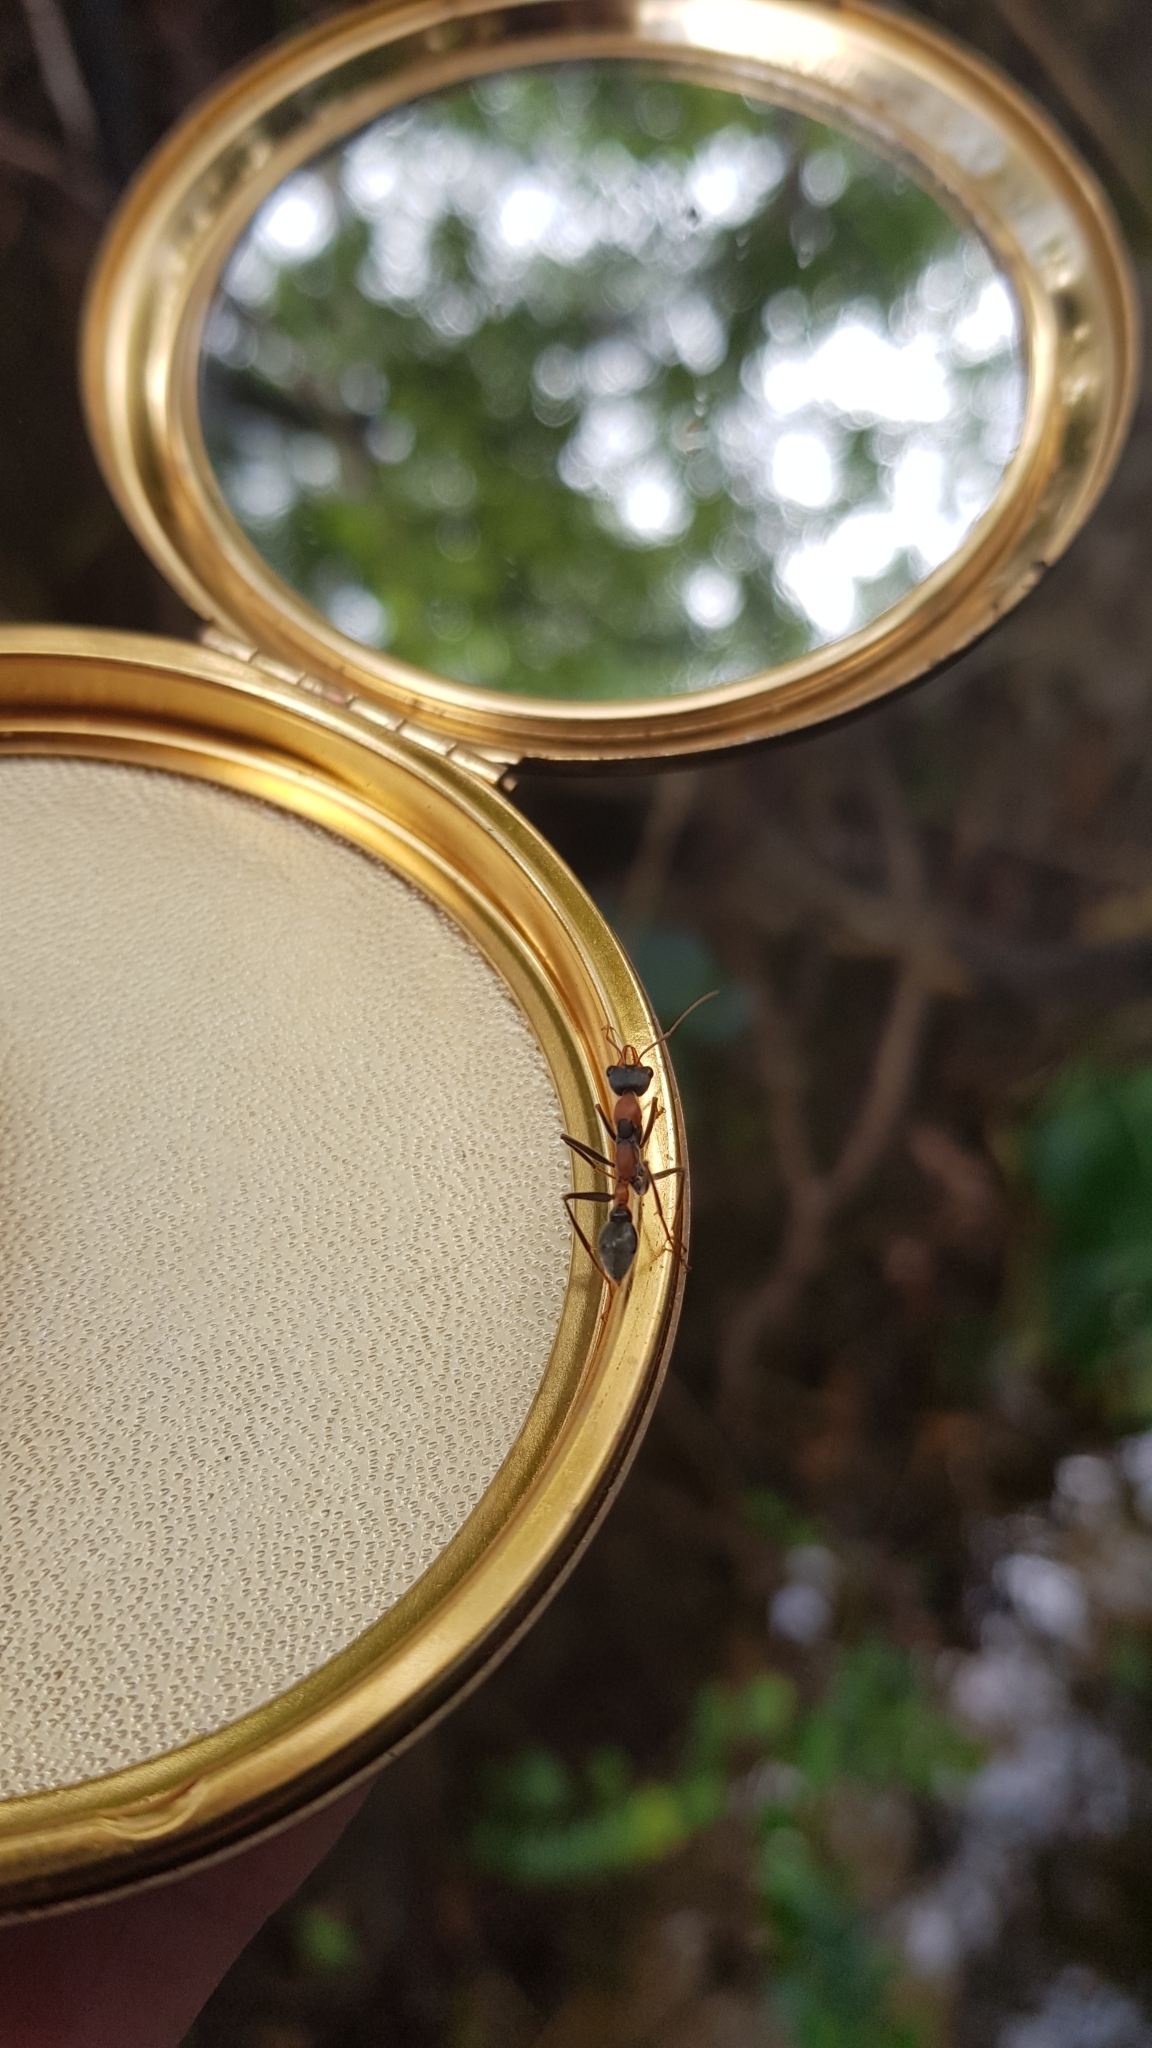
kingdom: Animalia
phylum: Arthropoda
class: Insecta
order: Hymenoptera
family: Formicidae
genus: Myrmecia
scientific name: Myrmecia nigrocincta
